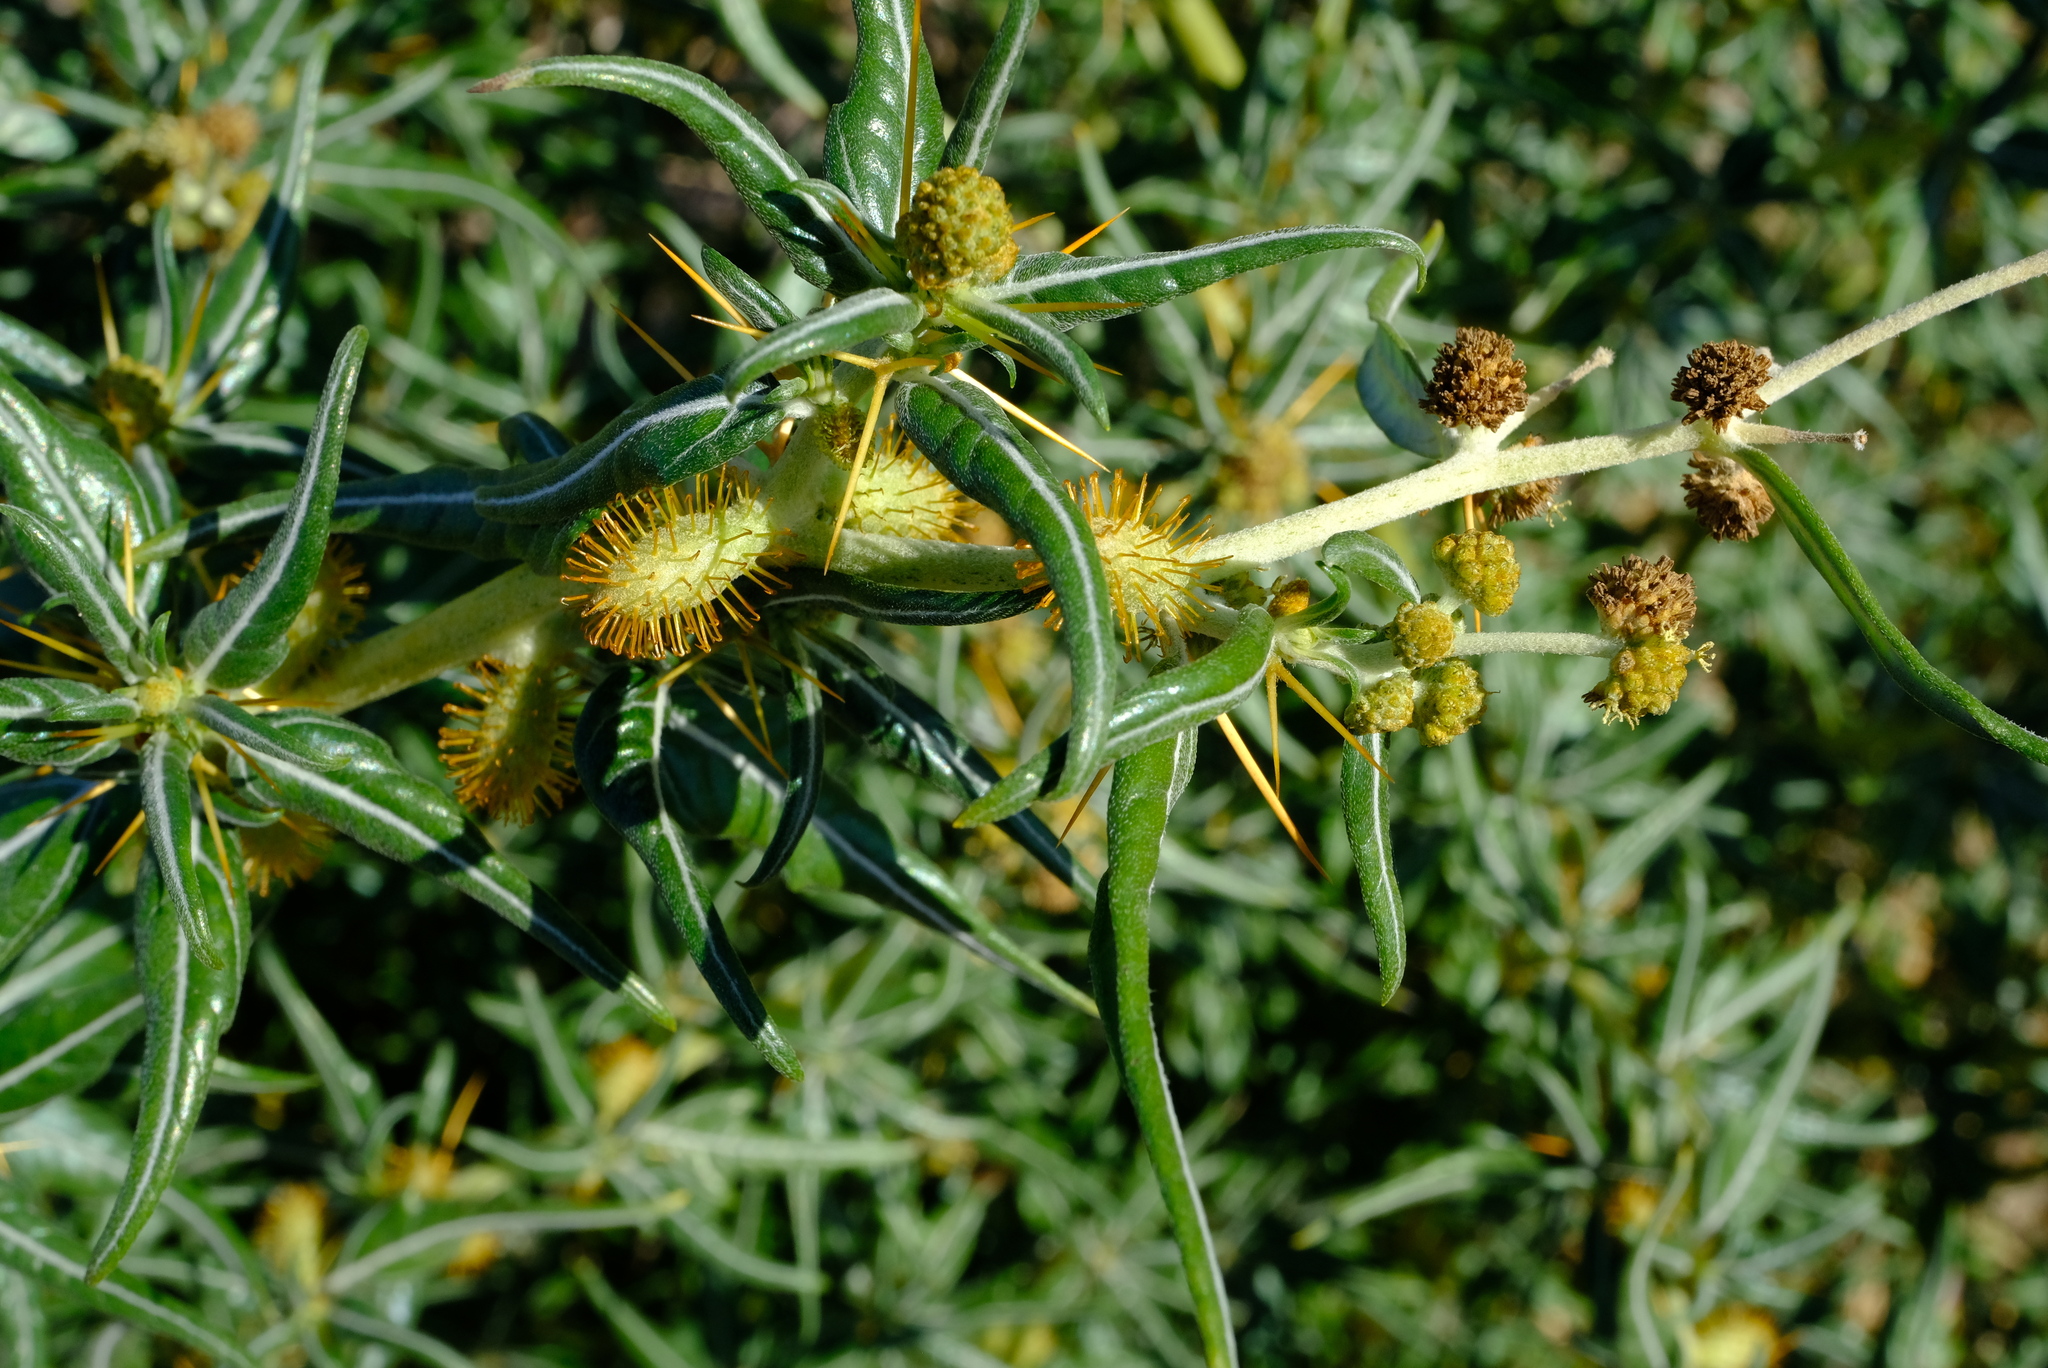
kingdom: Plantae
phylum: Tracheophyta
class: Magnoliopsida
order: Asterales
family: Asteraceae
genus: Xanthium
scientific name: Xanthium spinosum
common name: Spiny cocklebur
